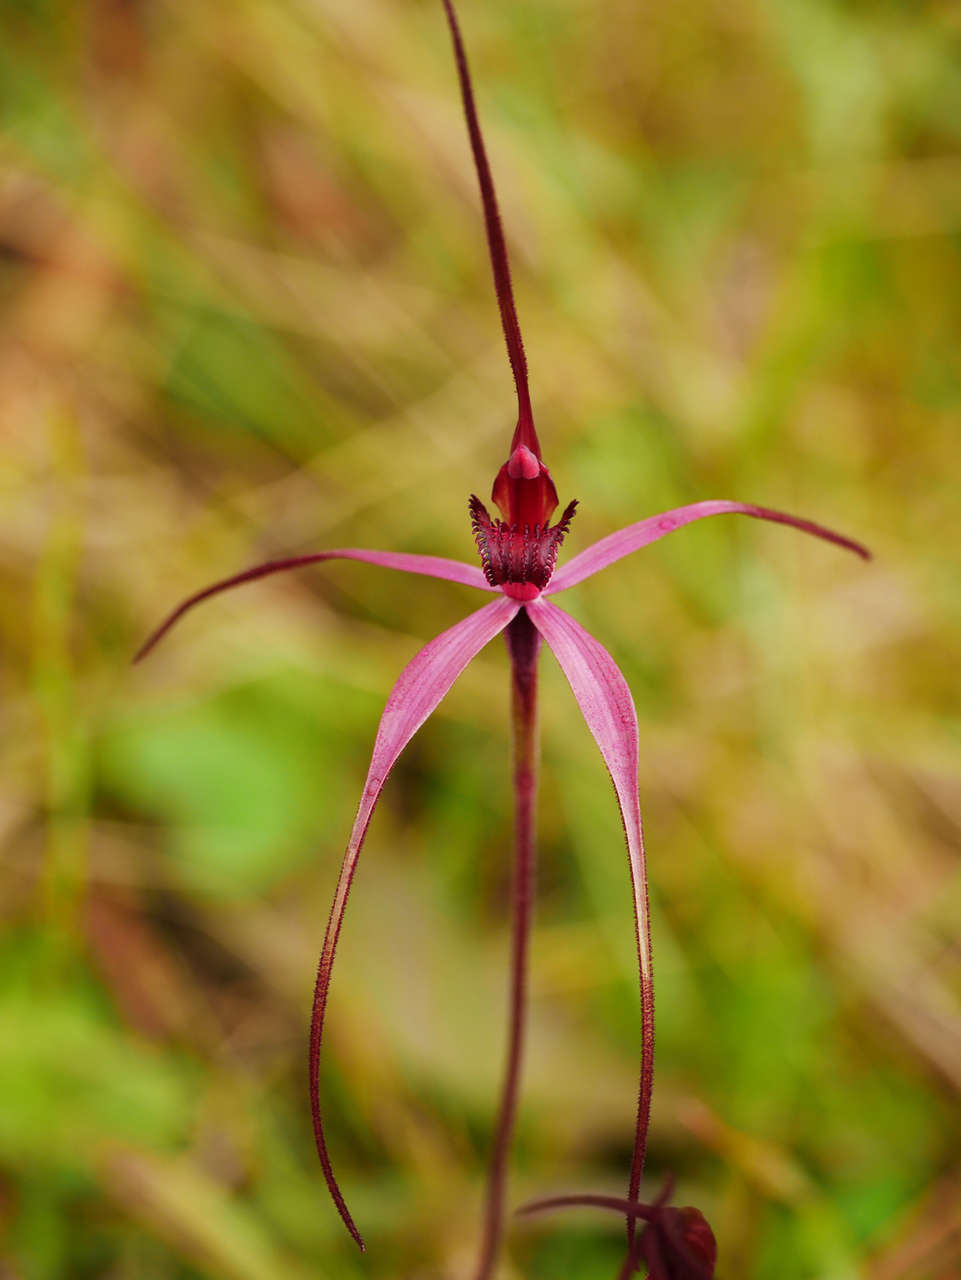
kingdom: Plantae
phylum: Tracheophyta
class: Liliopsida
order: Asparagales
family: Orchidaceae
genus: Caladenia
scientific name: Caladenia formosa
